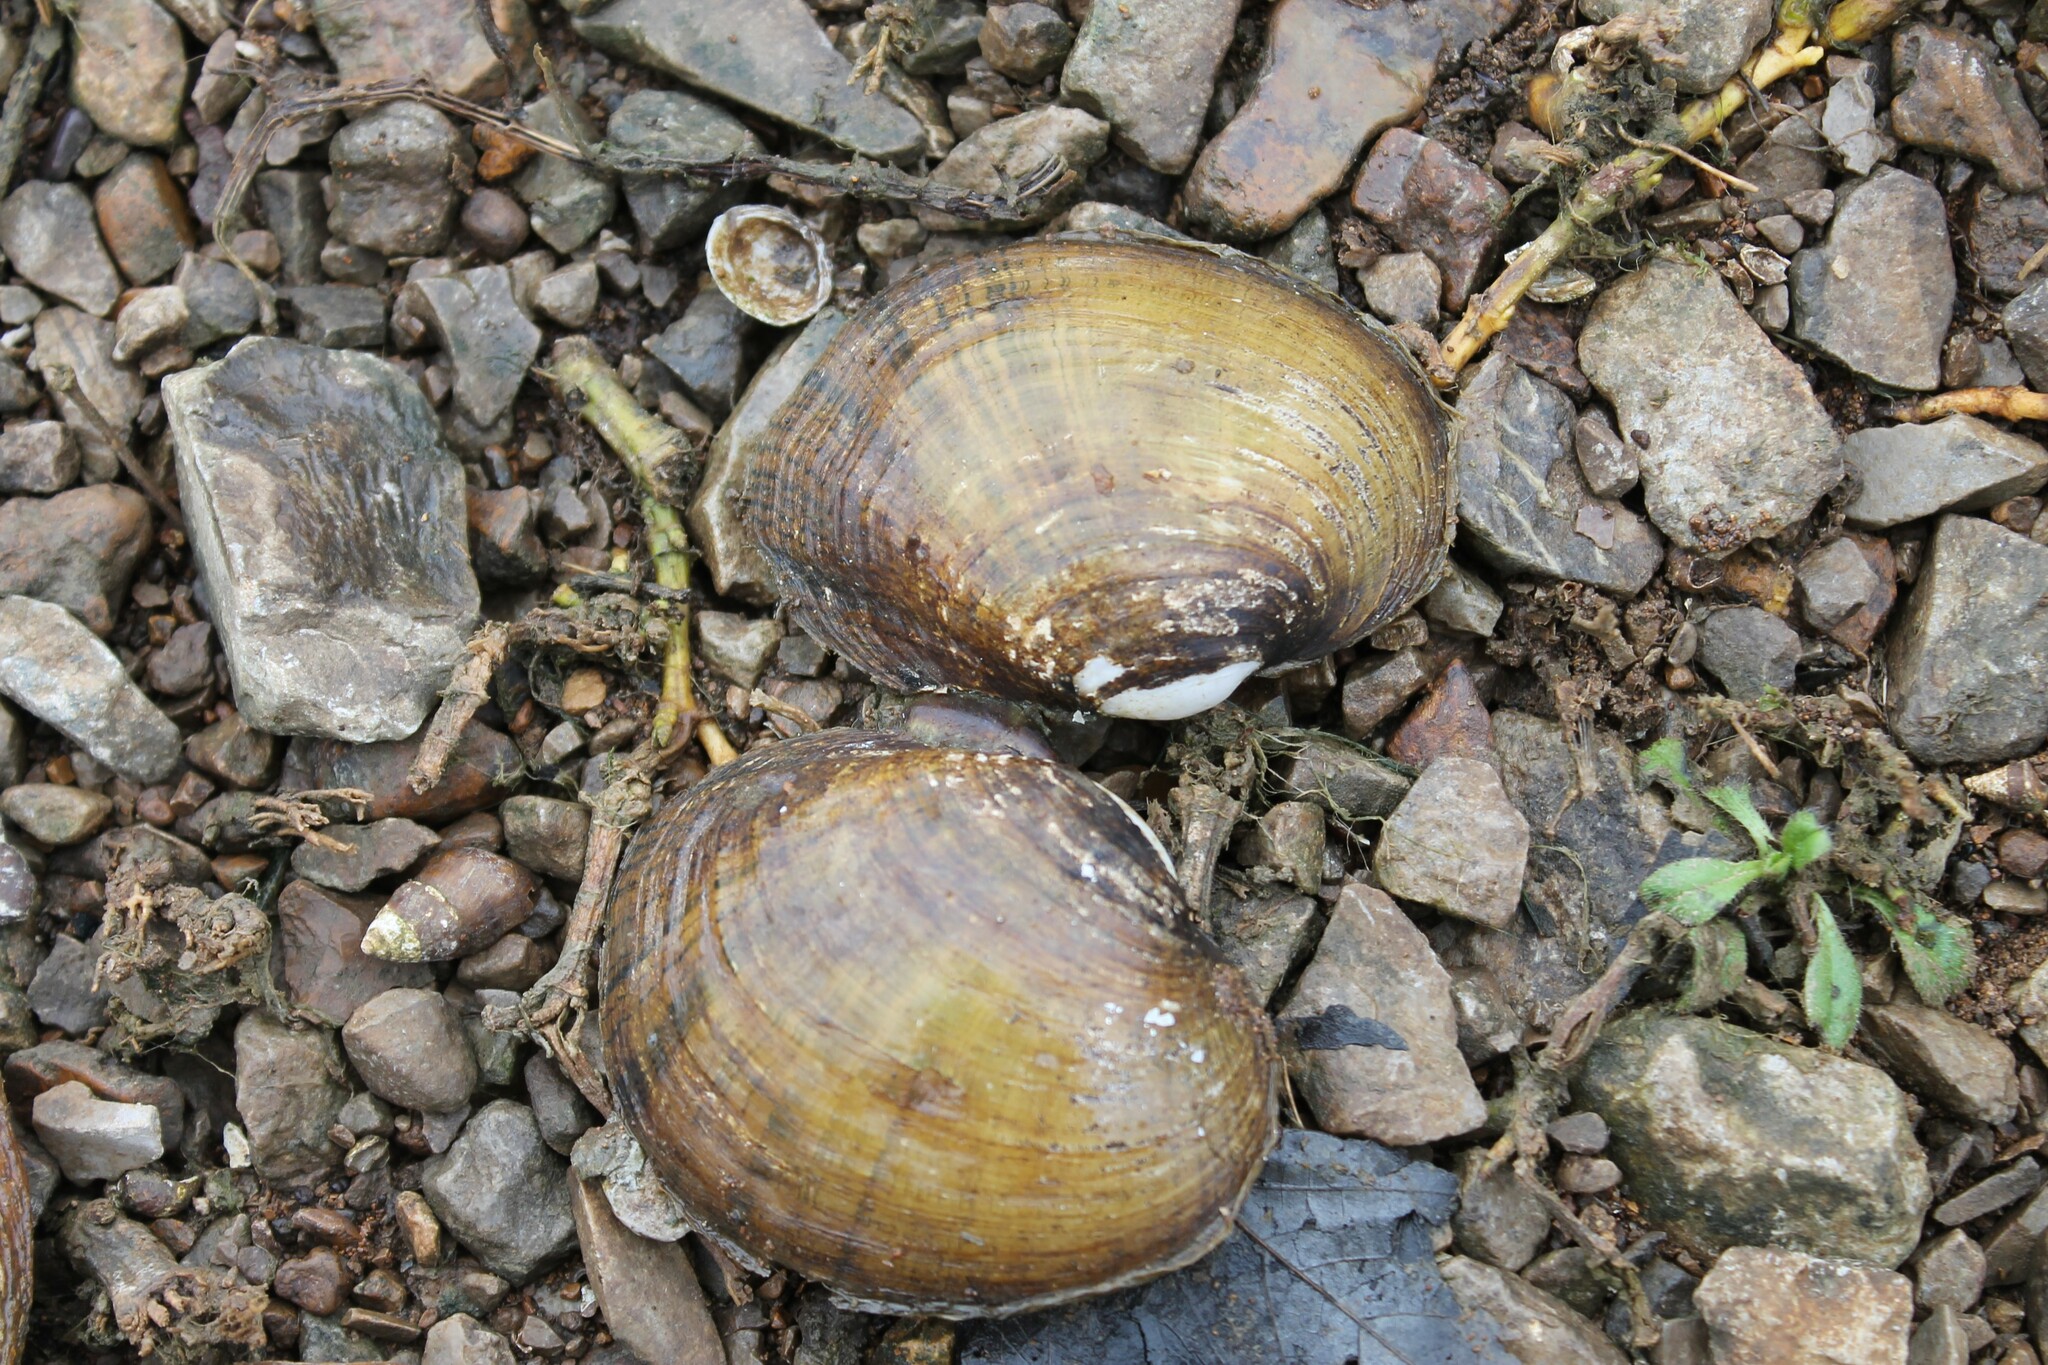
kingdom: Animalia
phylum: Mollusca
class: Bivalvia
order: Unionida
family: Unionidae
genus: Lampsilis
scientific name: Lampsilis fasciola
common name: Wavyrayed lampmussel
